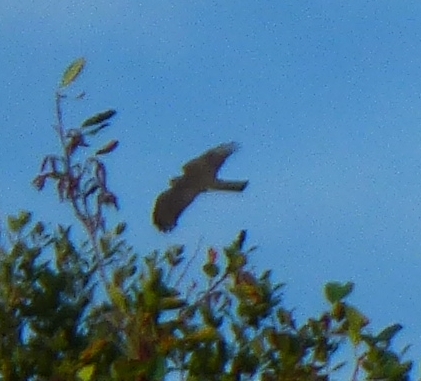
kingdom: Animalia
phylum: Chordata
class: Aves
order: Accipitriformes
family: Accipitridae
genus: Accipiter
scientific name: Accipiter nisus
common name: Eurasian sparrowhawk
